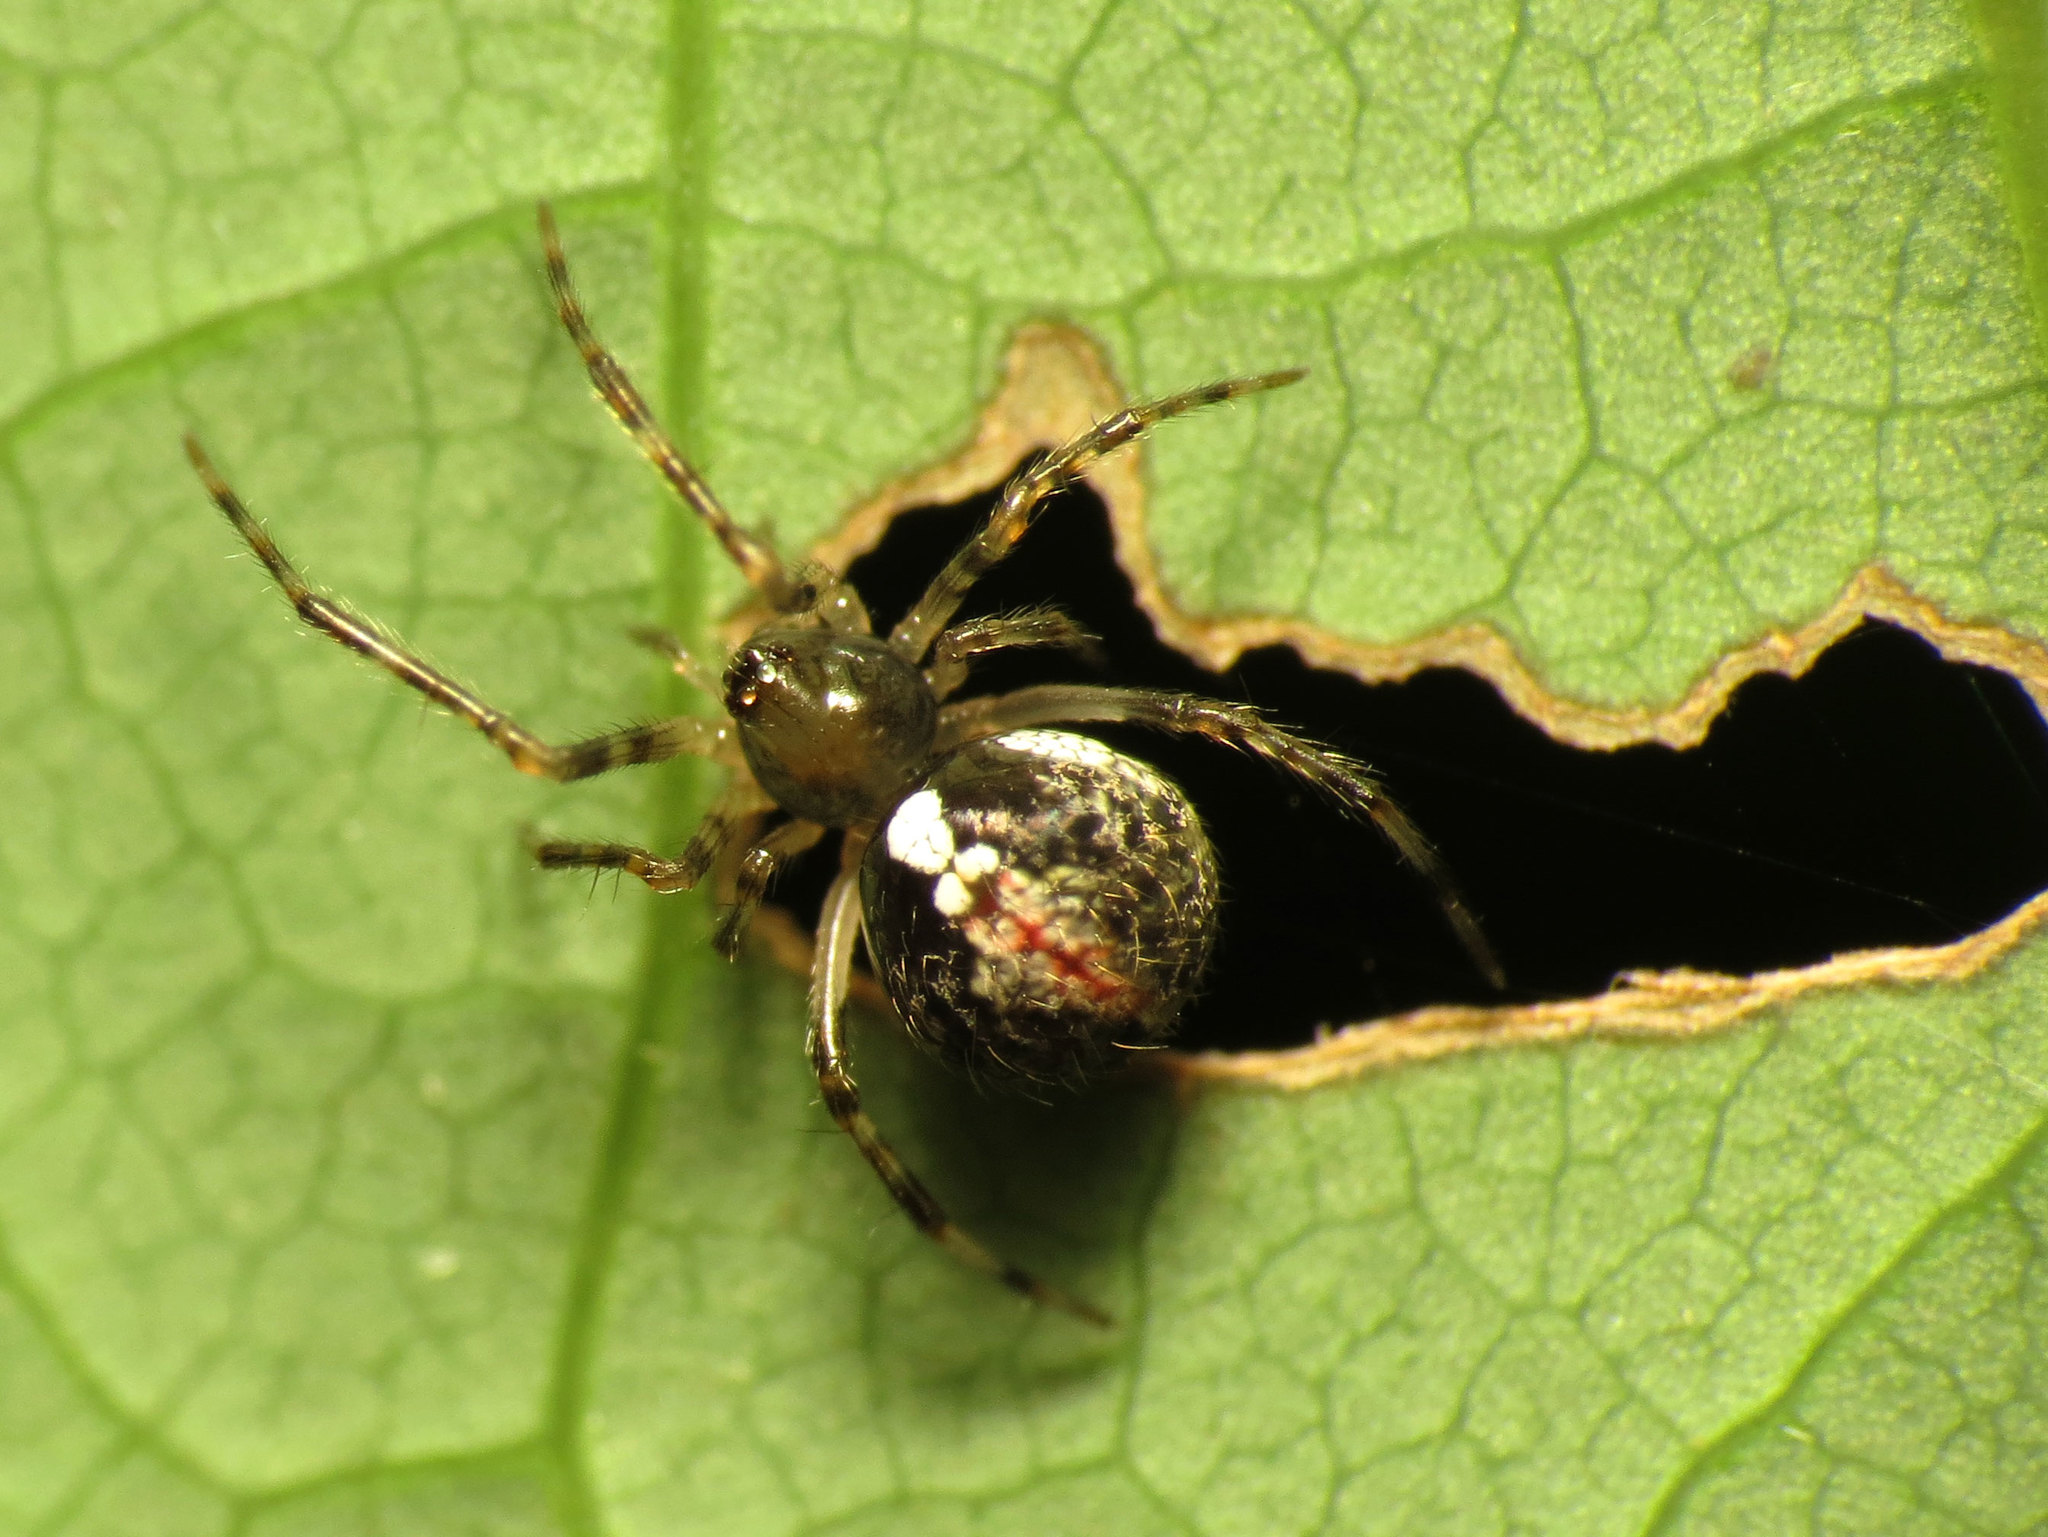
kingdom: Animalia
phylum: Arthropoda
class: Arachnida
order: Araneae
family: Theridiidae
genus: Yunohamella
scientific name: Yunohamella lyrica
